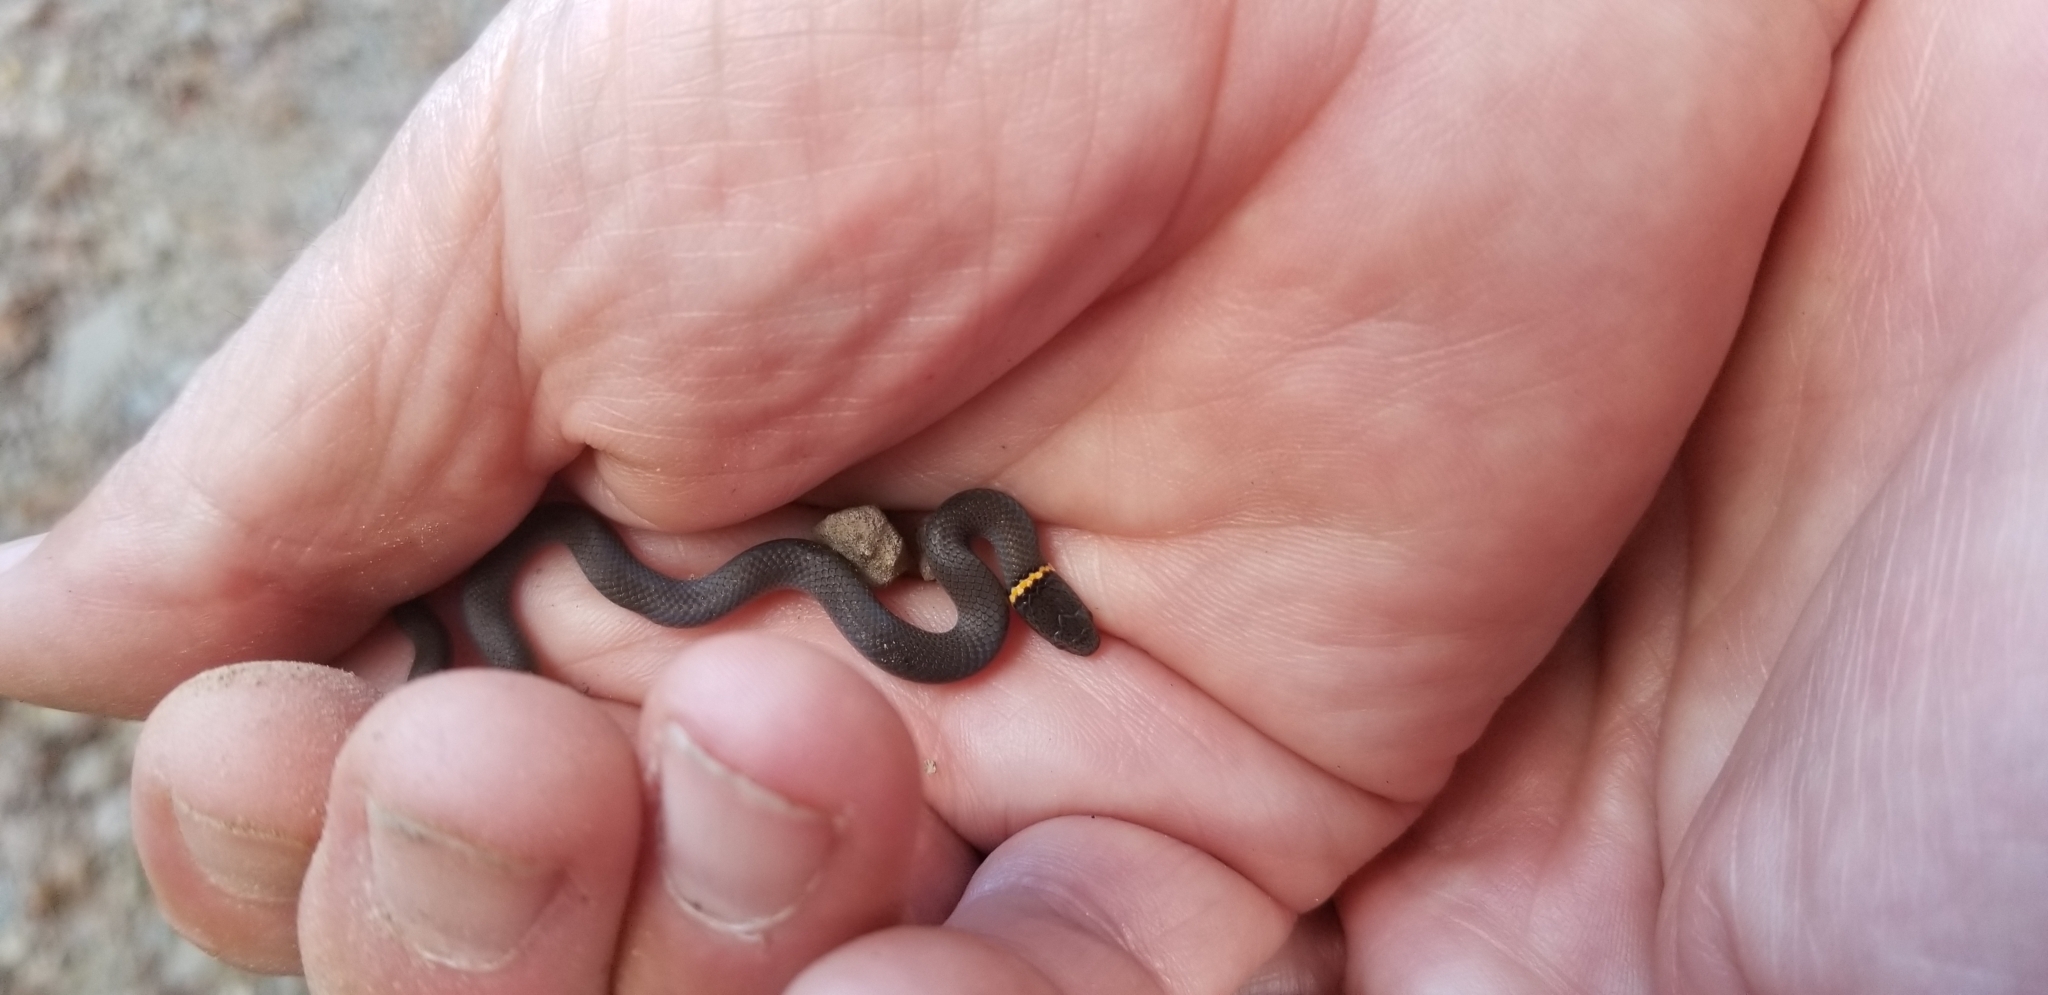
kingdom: Animalia
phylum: Chordata
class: Squamata
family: Colubridae
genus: Diadophis
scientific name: Diadophis punctatus
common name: Ringneck snake
